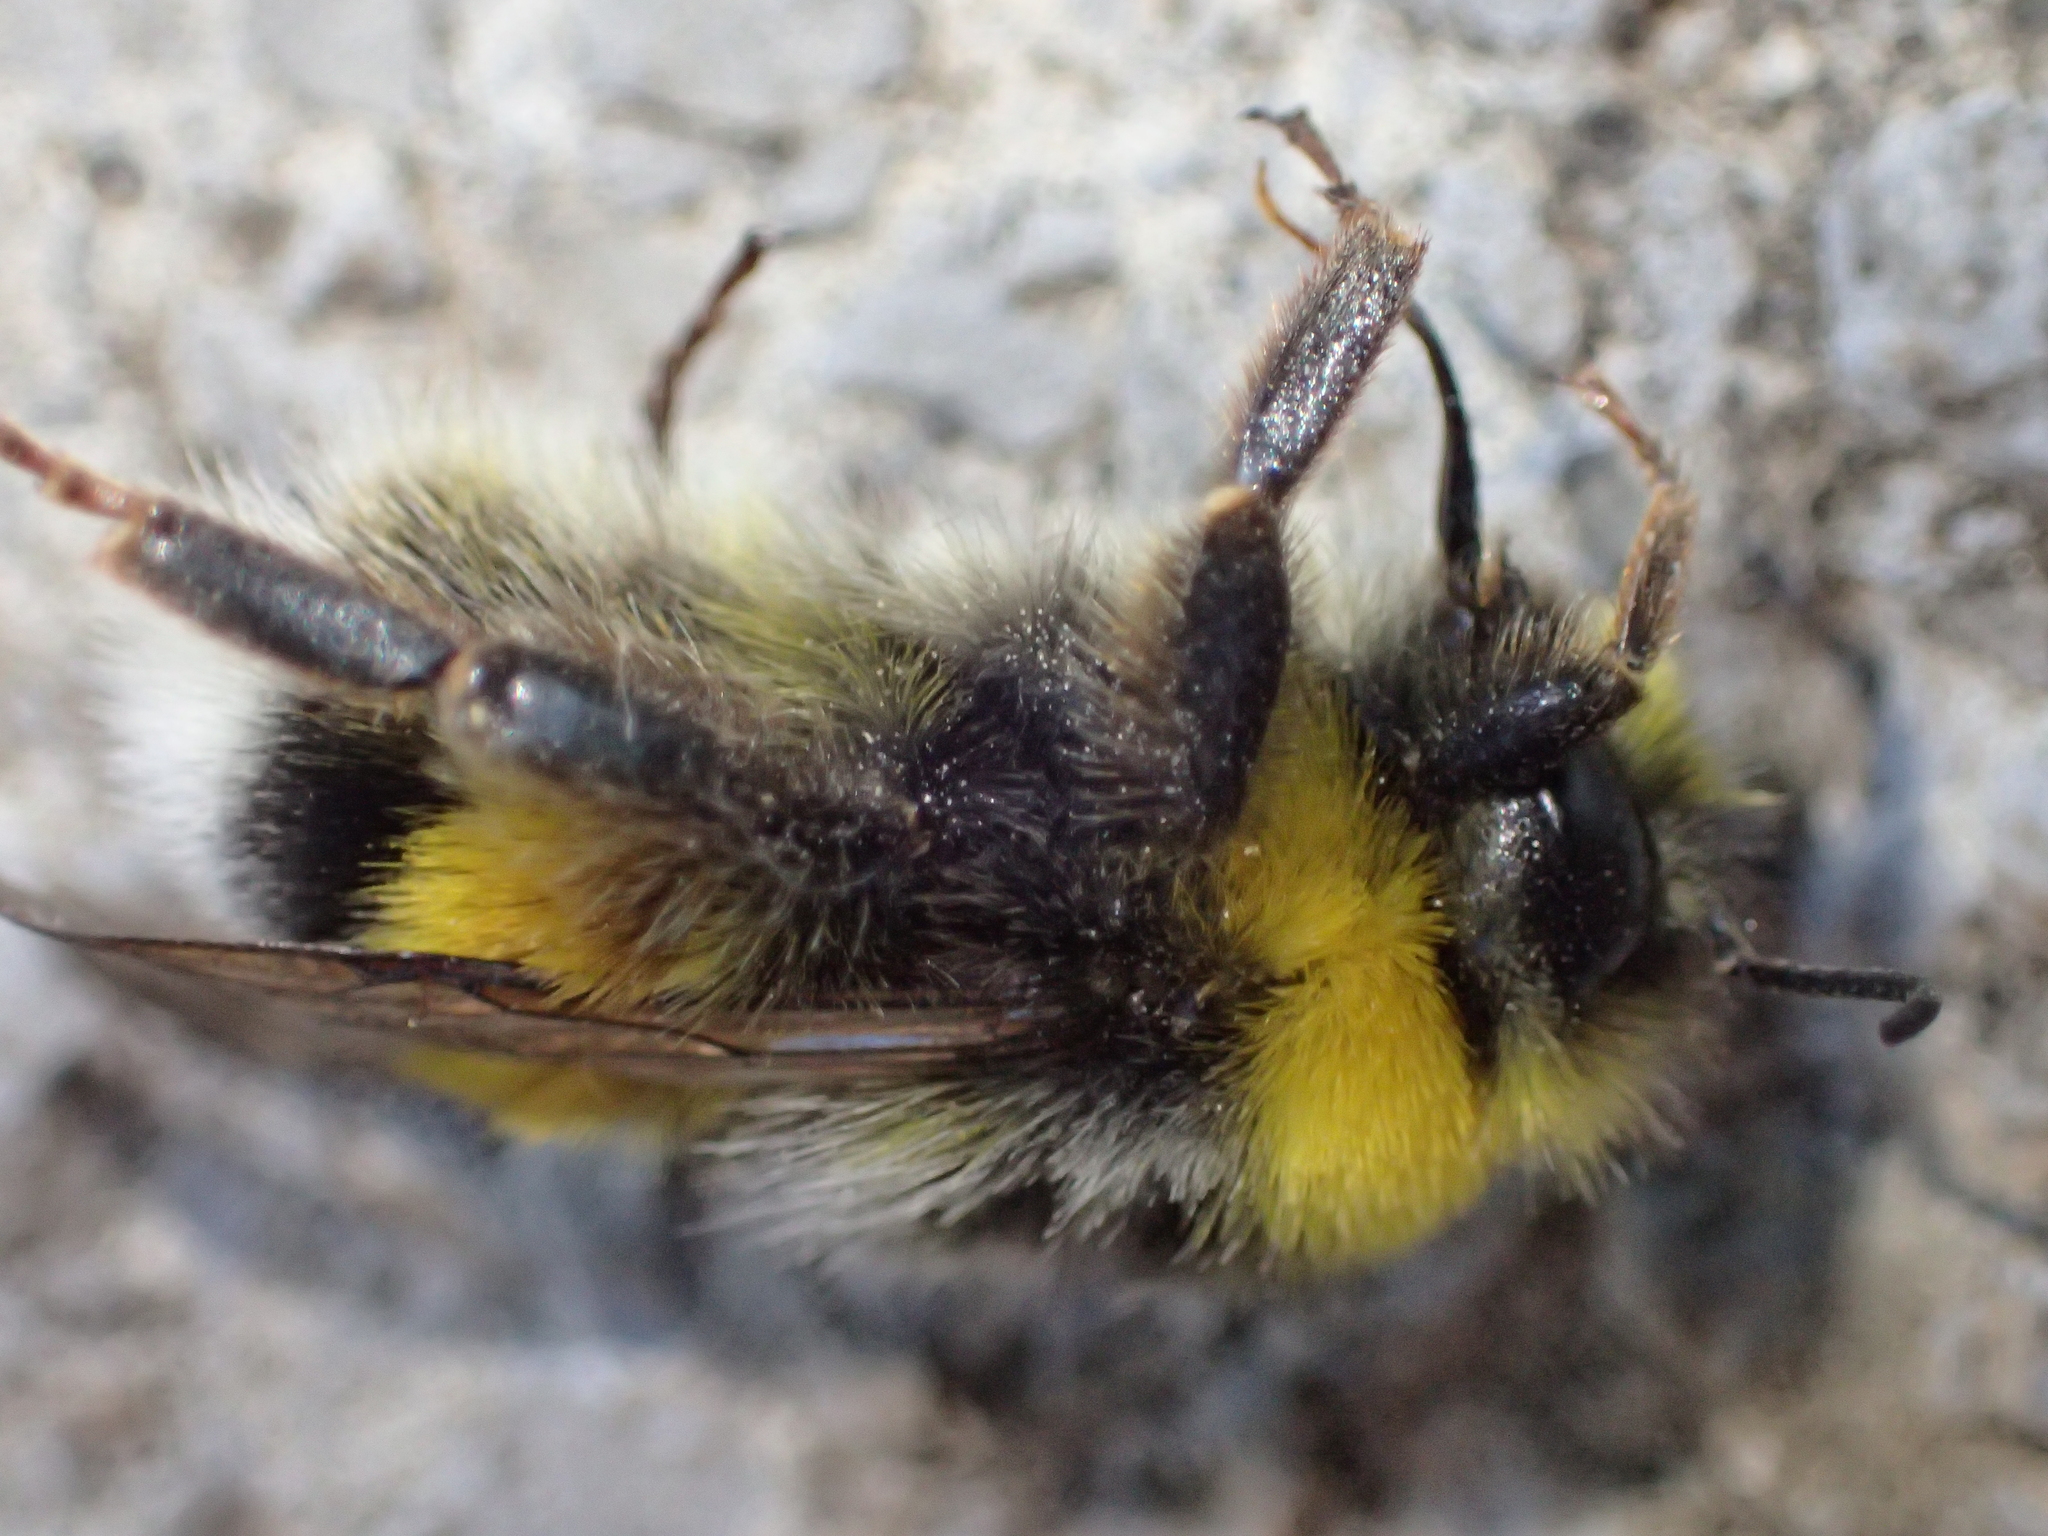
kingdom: Animalia
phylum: Arthropoda
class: Insecta
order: Hymenoptera
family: Apidae
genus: Bombus
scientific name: Bombus lucorum
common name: White-tailed bumblebee
